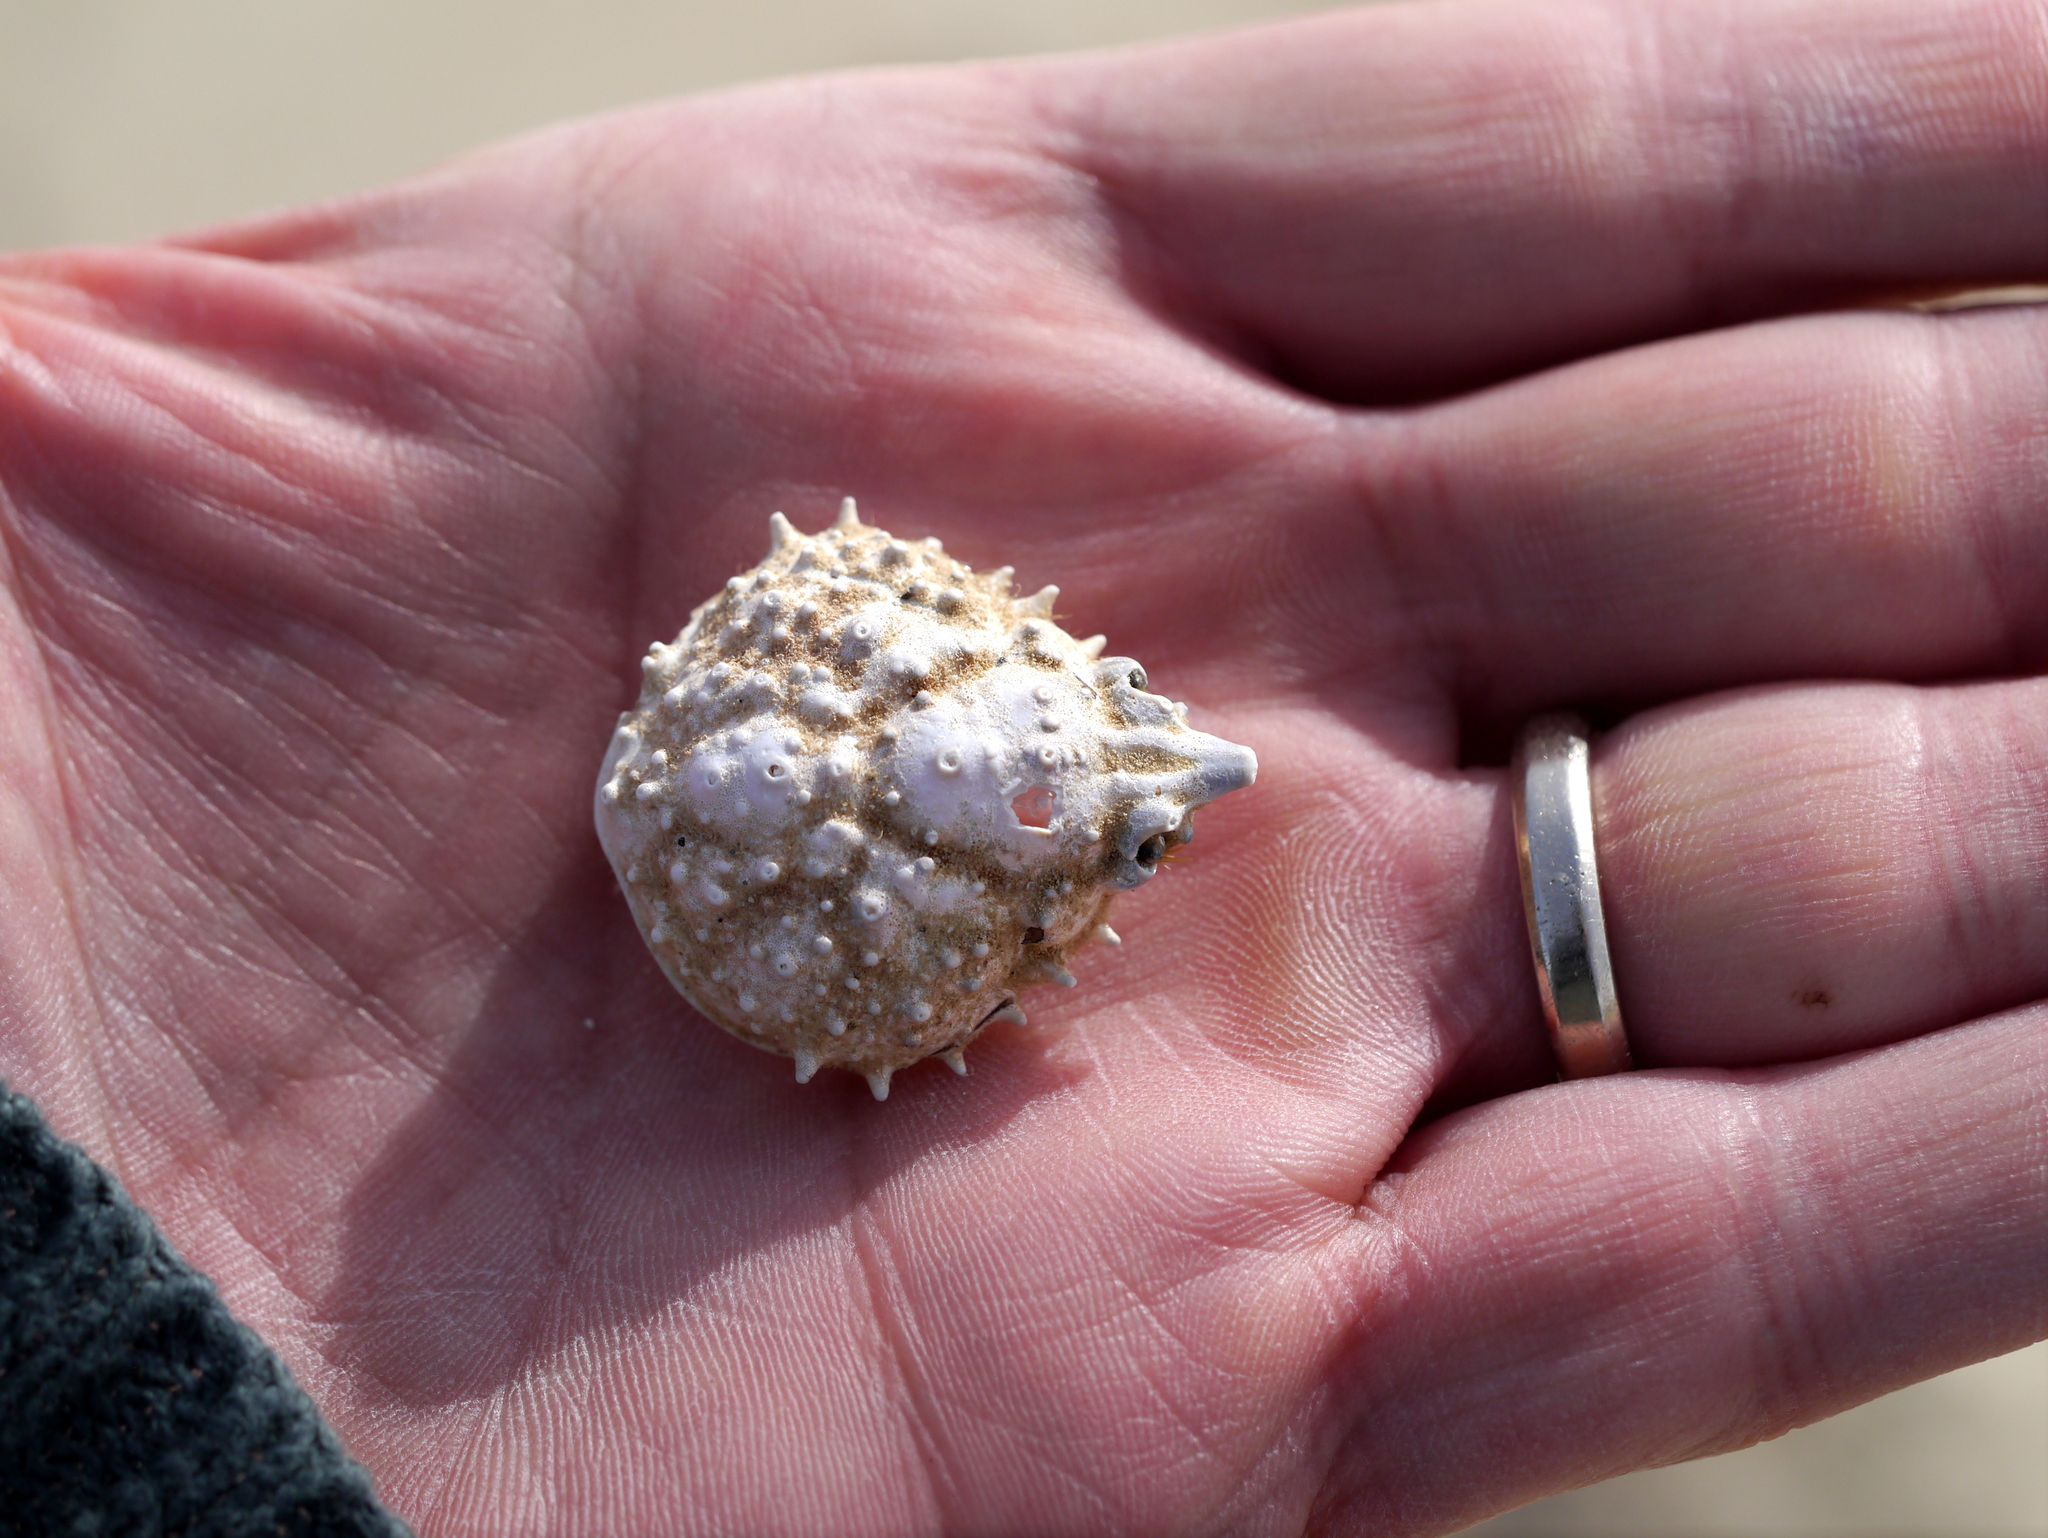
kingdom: Animalia
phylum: Arthropoda
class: Malacostraca
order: Decapoda
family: Epialtidae
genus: Libinia
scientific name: Libinia emarginata
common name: Common spider crab
